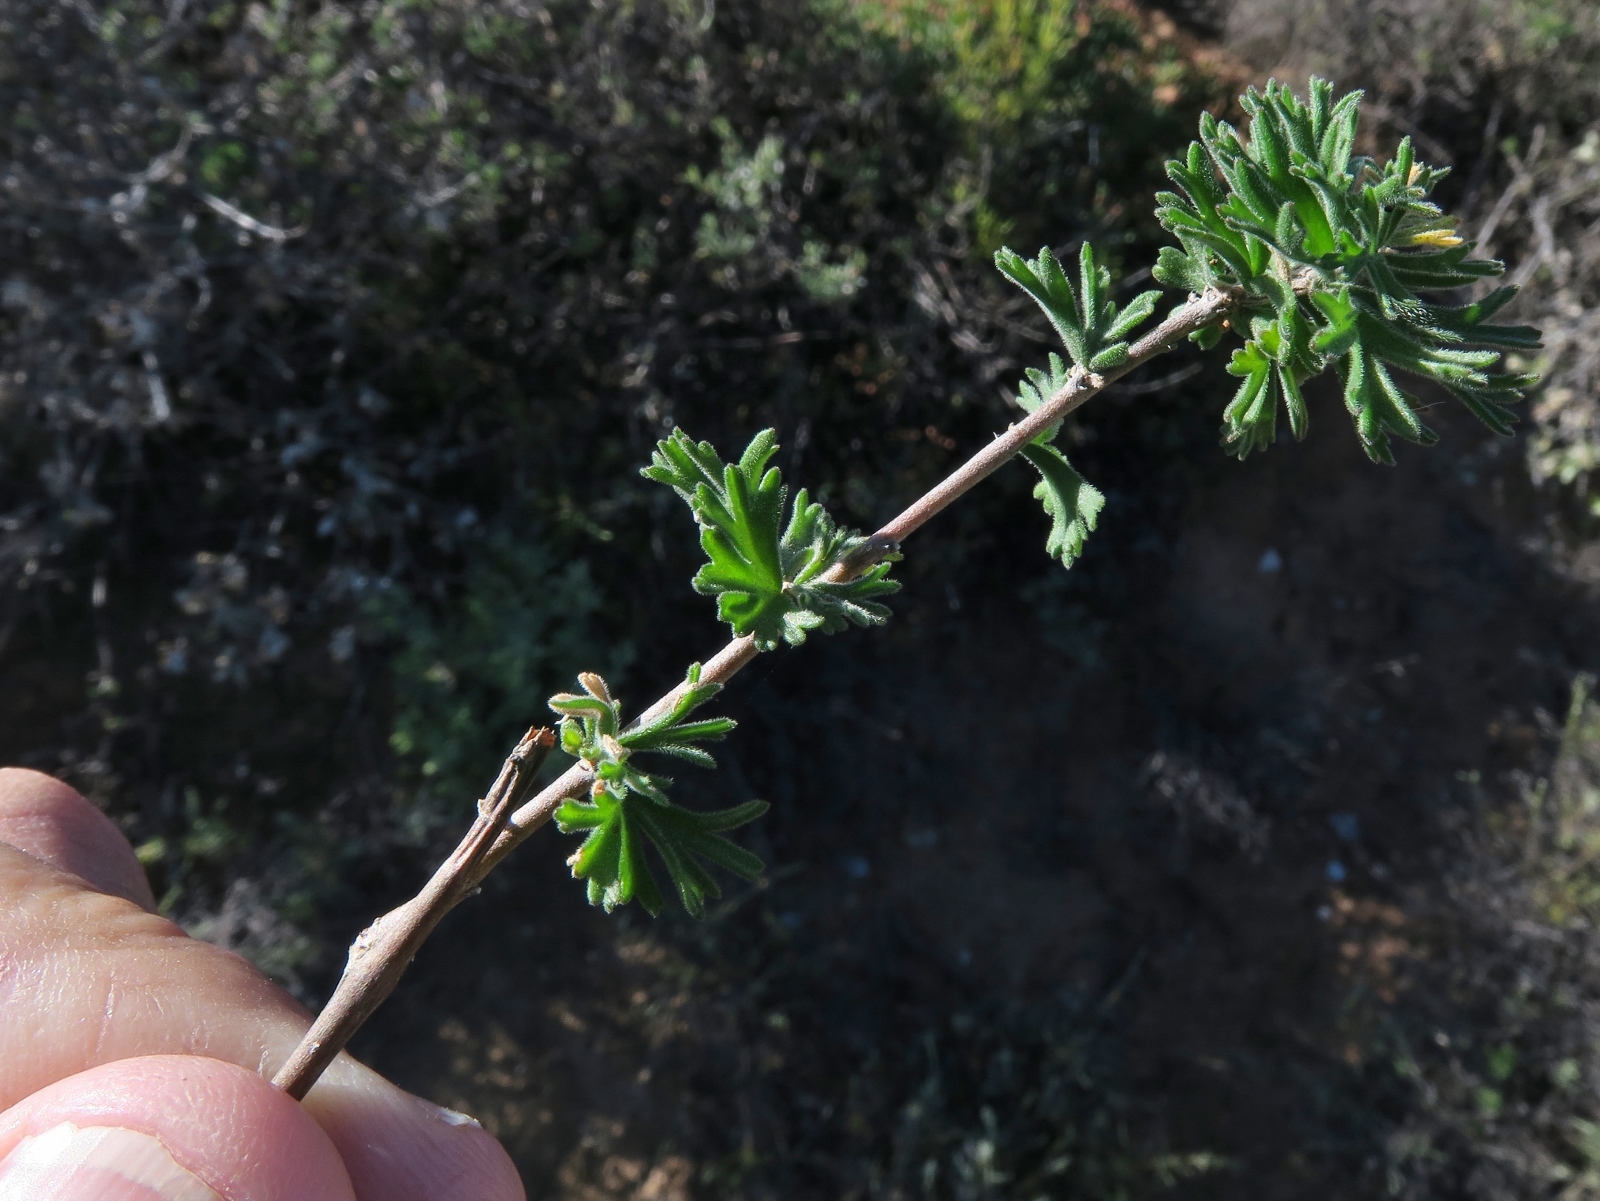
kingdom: Plantae
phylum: Tracheophyta
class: Magnoliopsida
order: Geraniales
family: Geraniaceae
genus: Pelargonium
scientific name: Pelargonium karooicum
